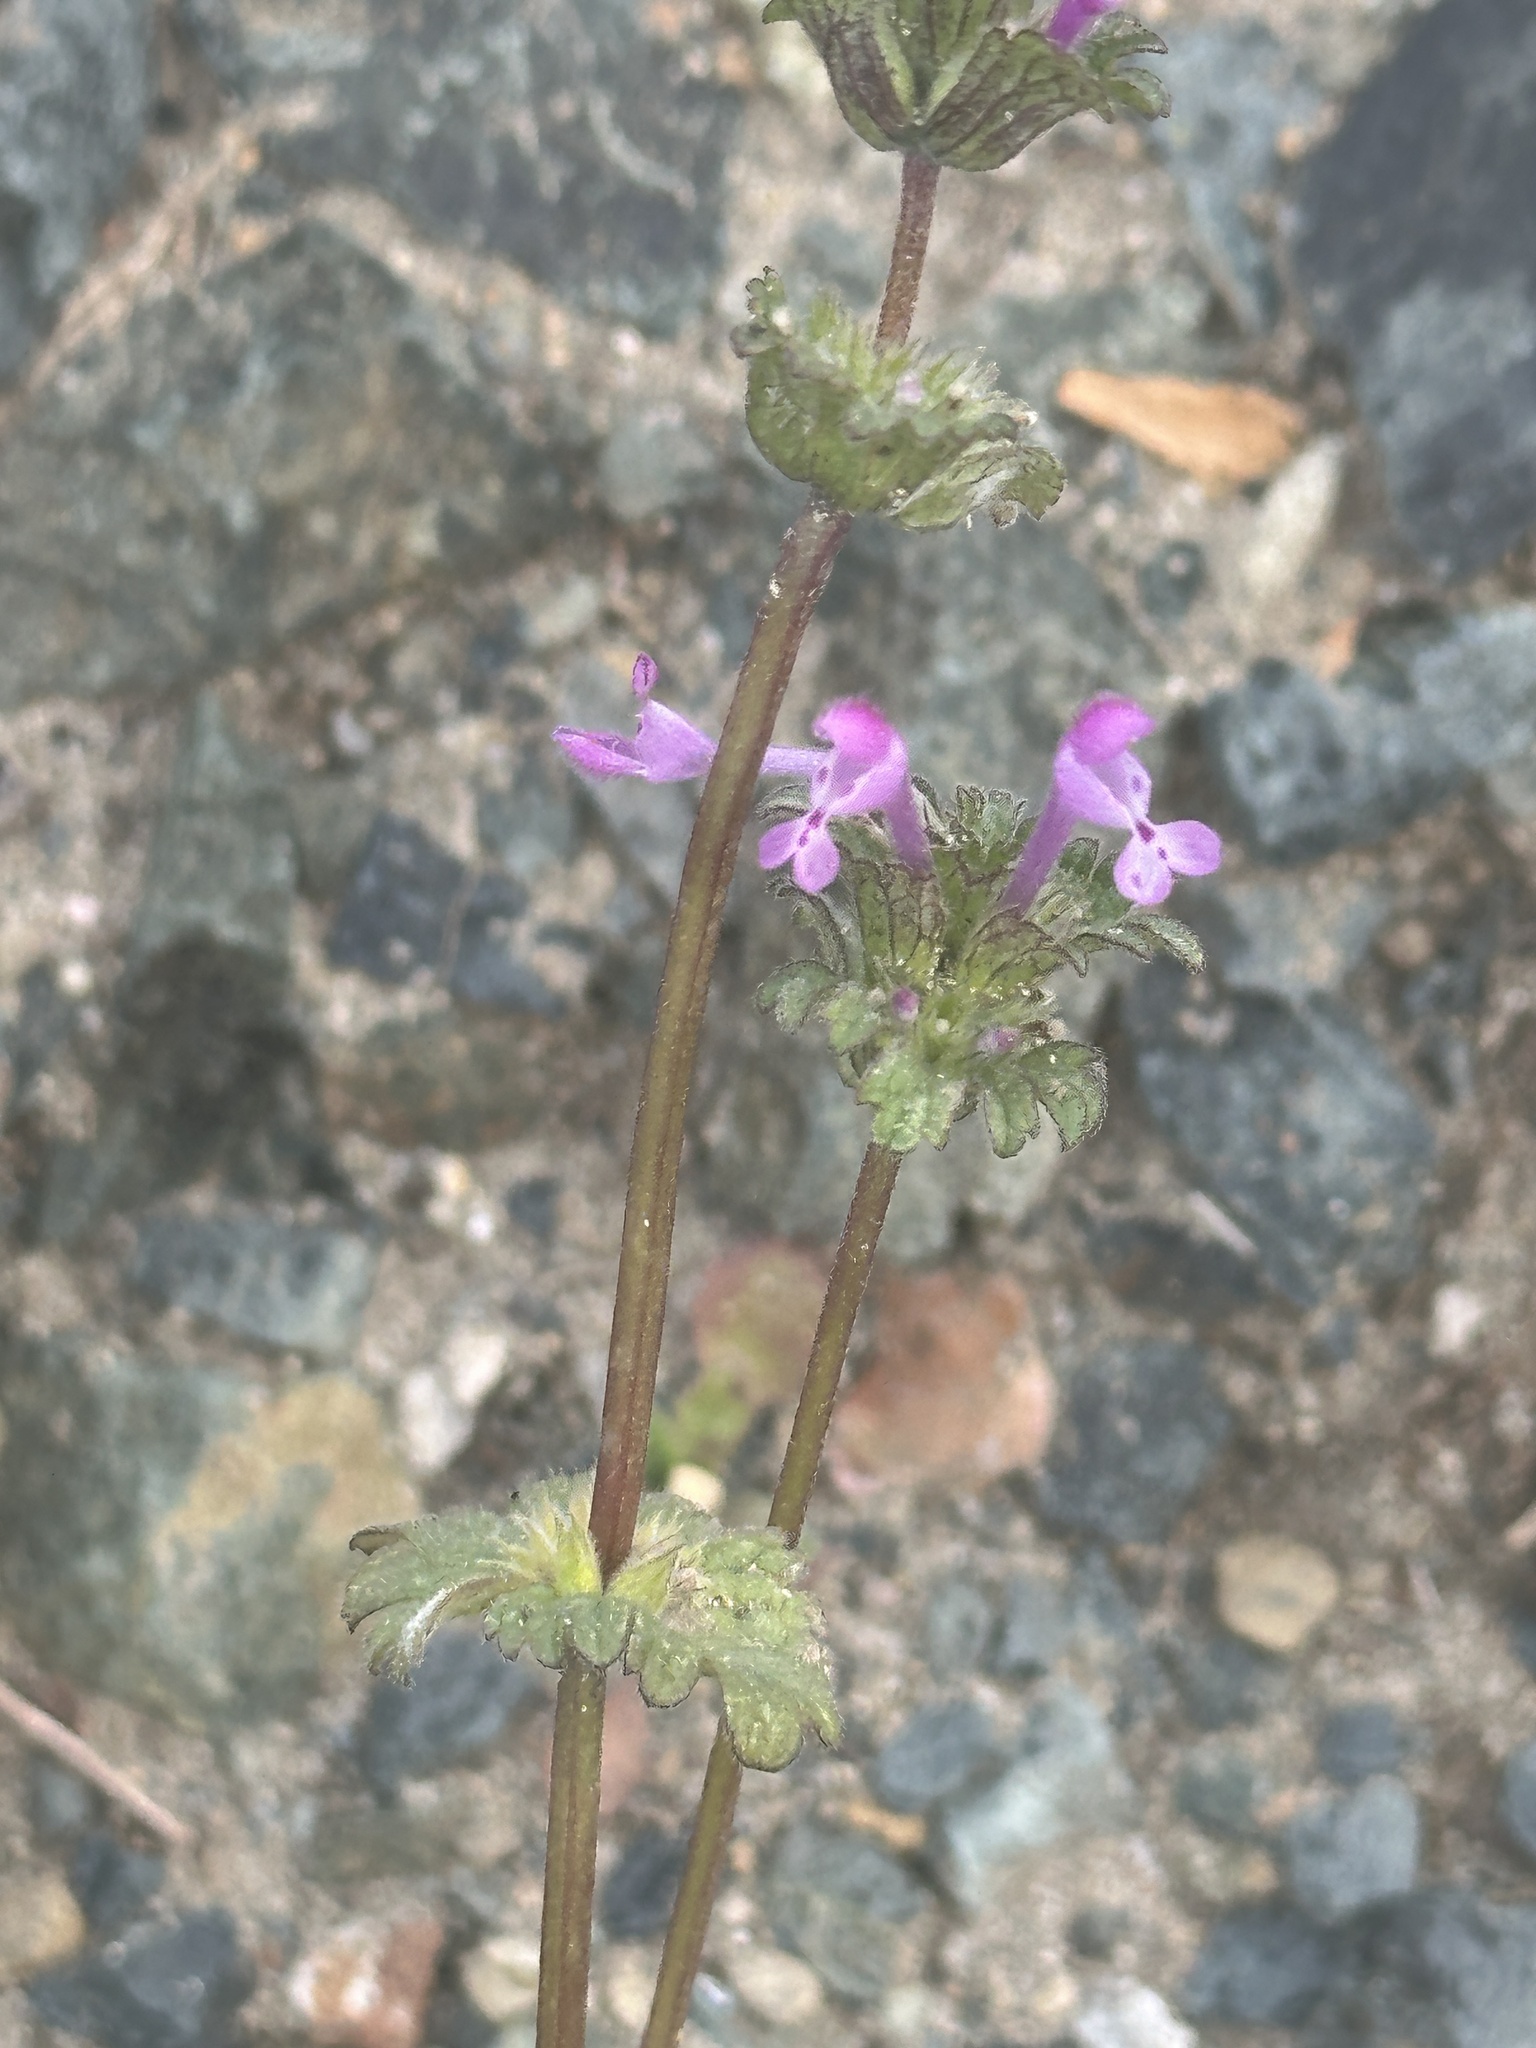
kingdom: Plantae
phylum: Tracheophyta
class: Magnoliopsida
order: Lamiales
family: Lamiaceae
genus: Lamium
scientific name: Lamium amplexicaule
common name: Henbit dead-nettle
